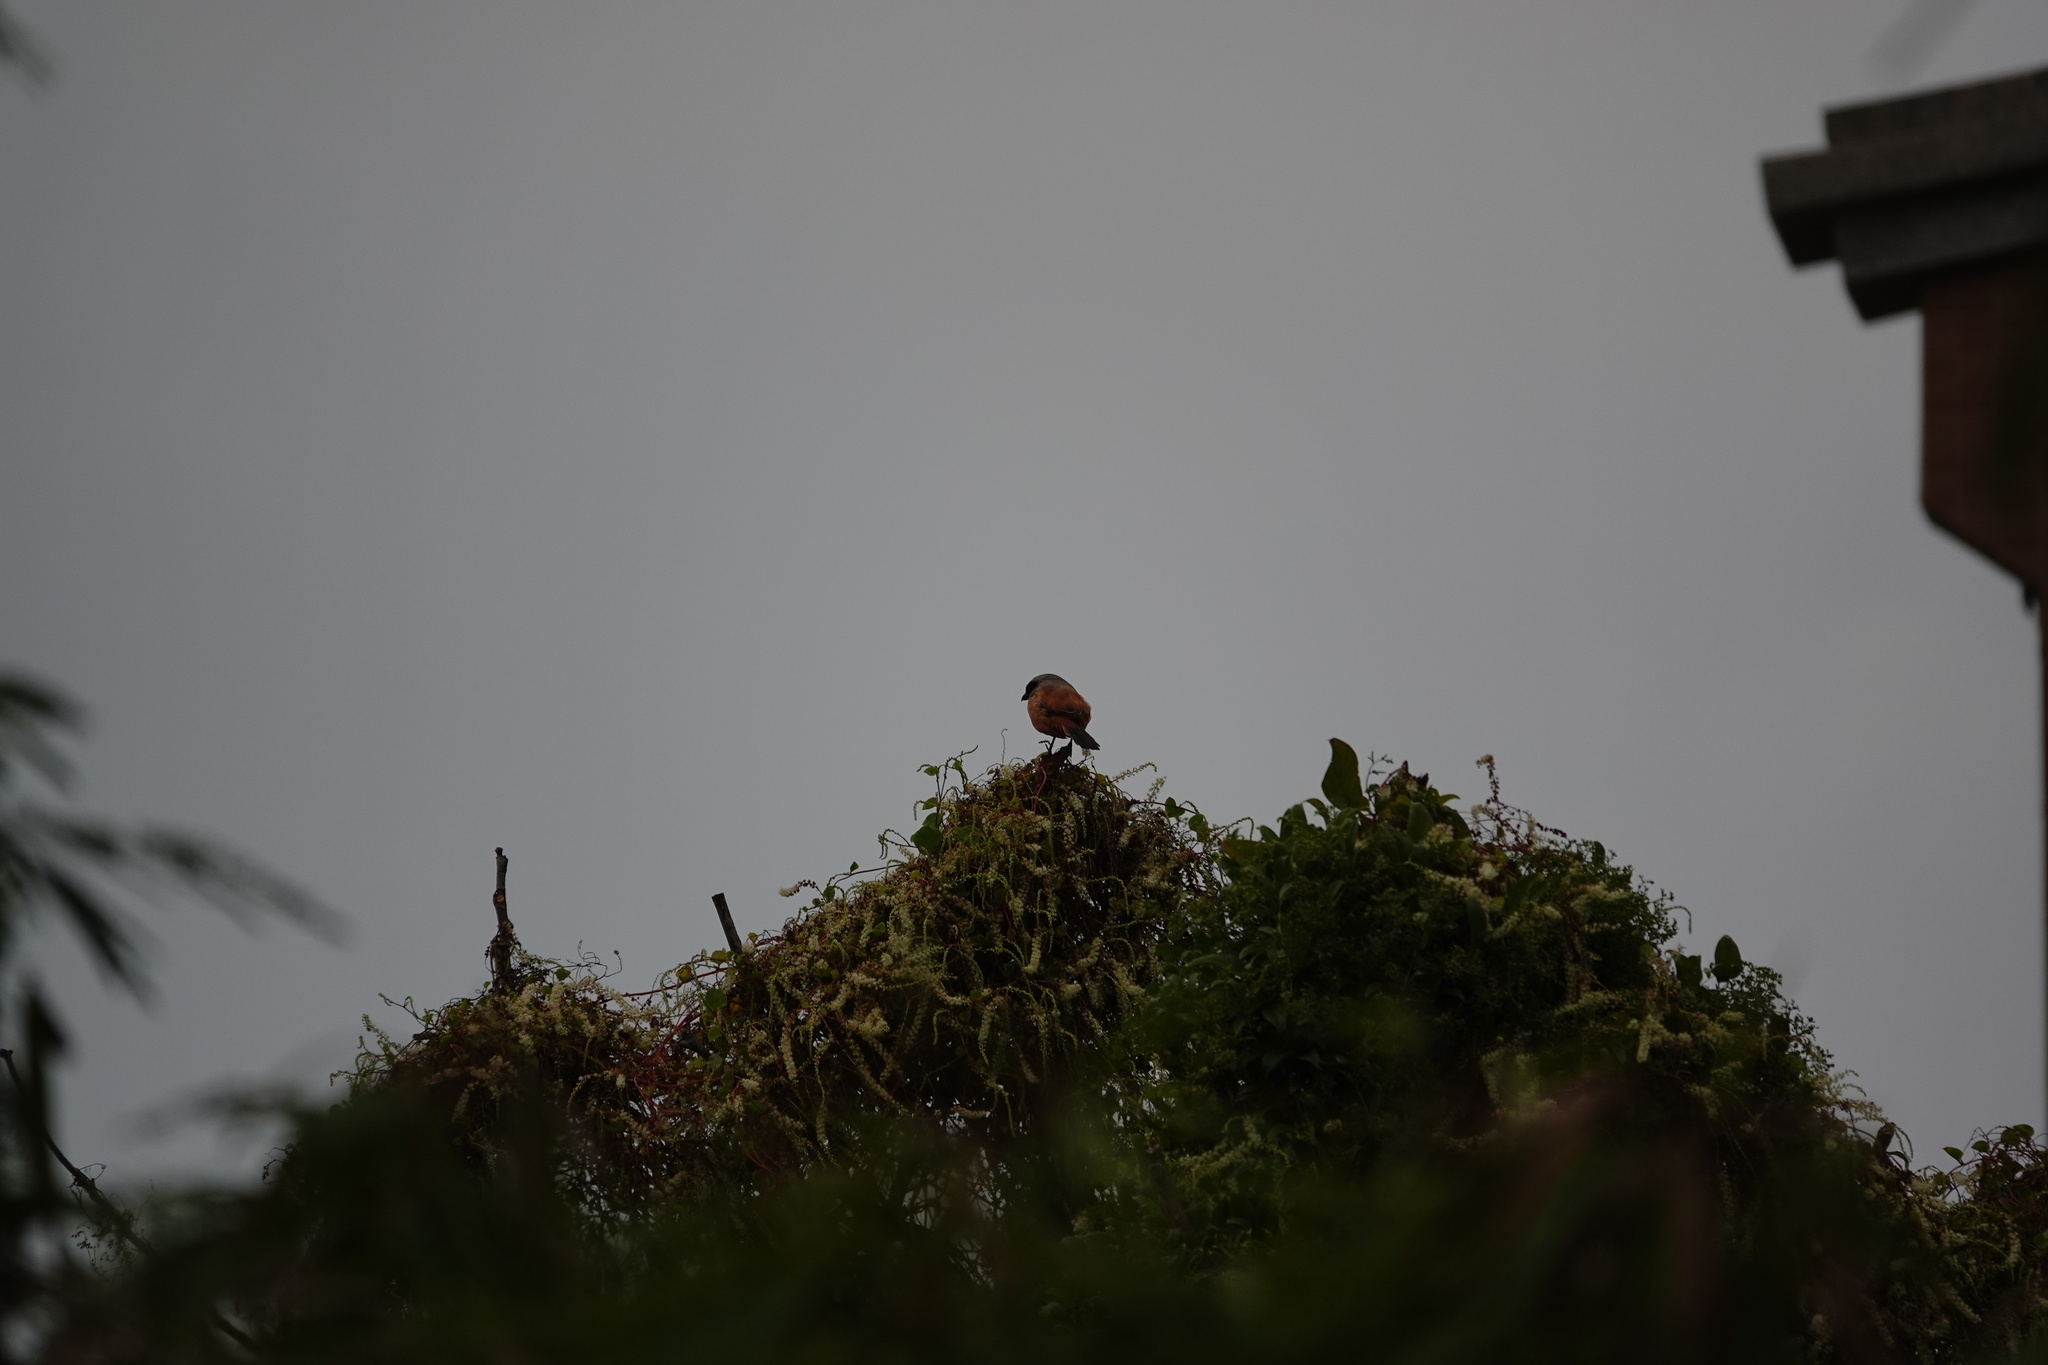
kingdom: Animalia
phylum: Chordata
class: Aves
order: Passeriformes
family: Laniidae
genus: Lanius
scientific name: Lanius schach
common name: Long-tailed shrike
